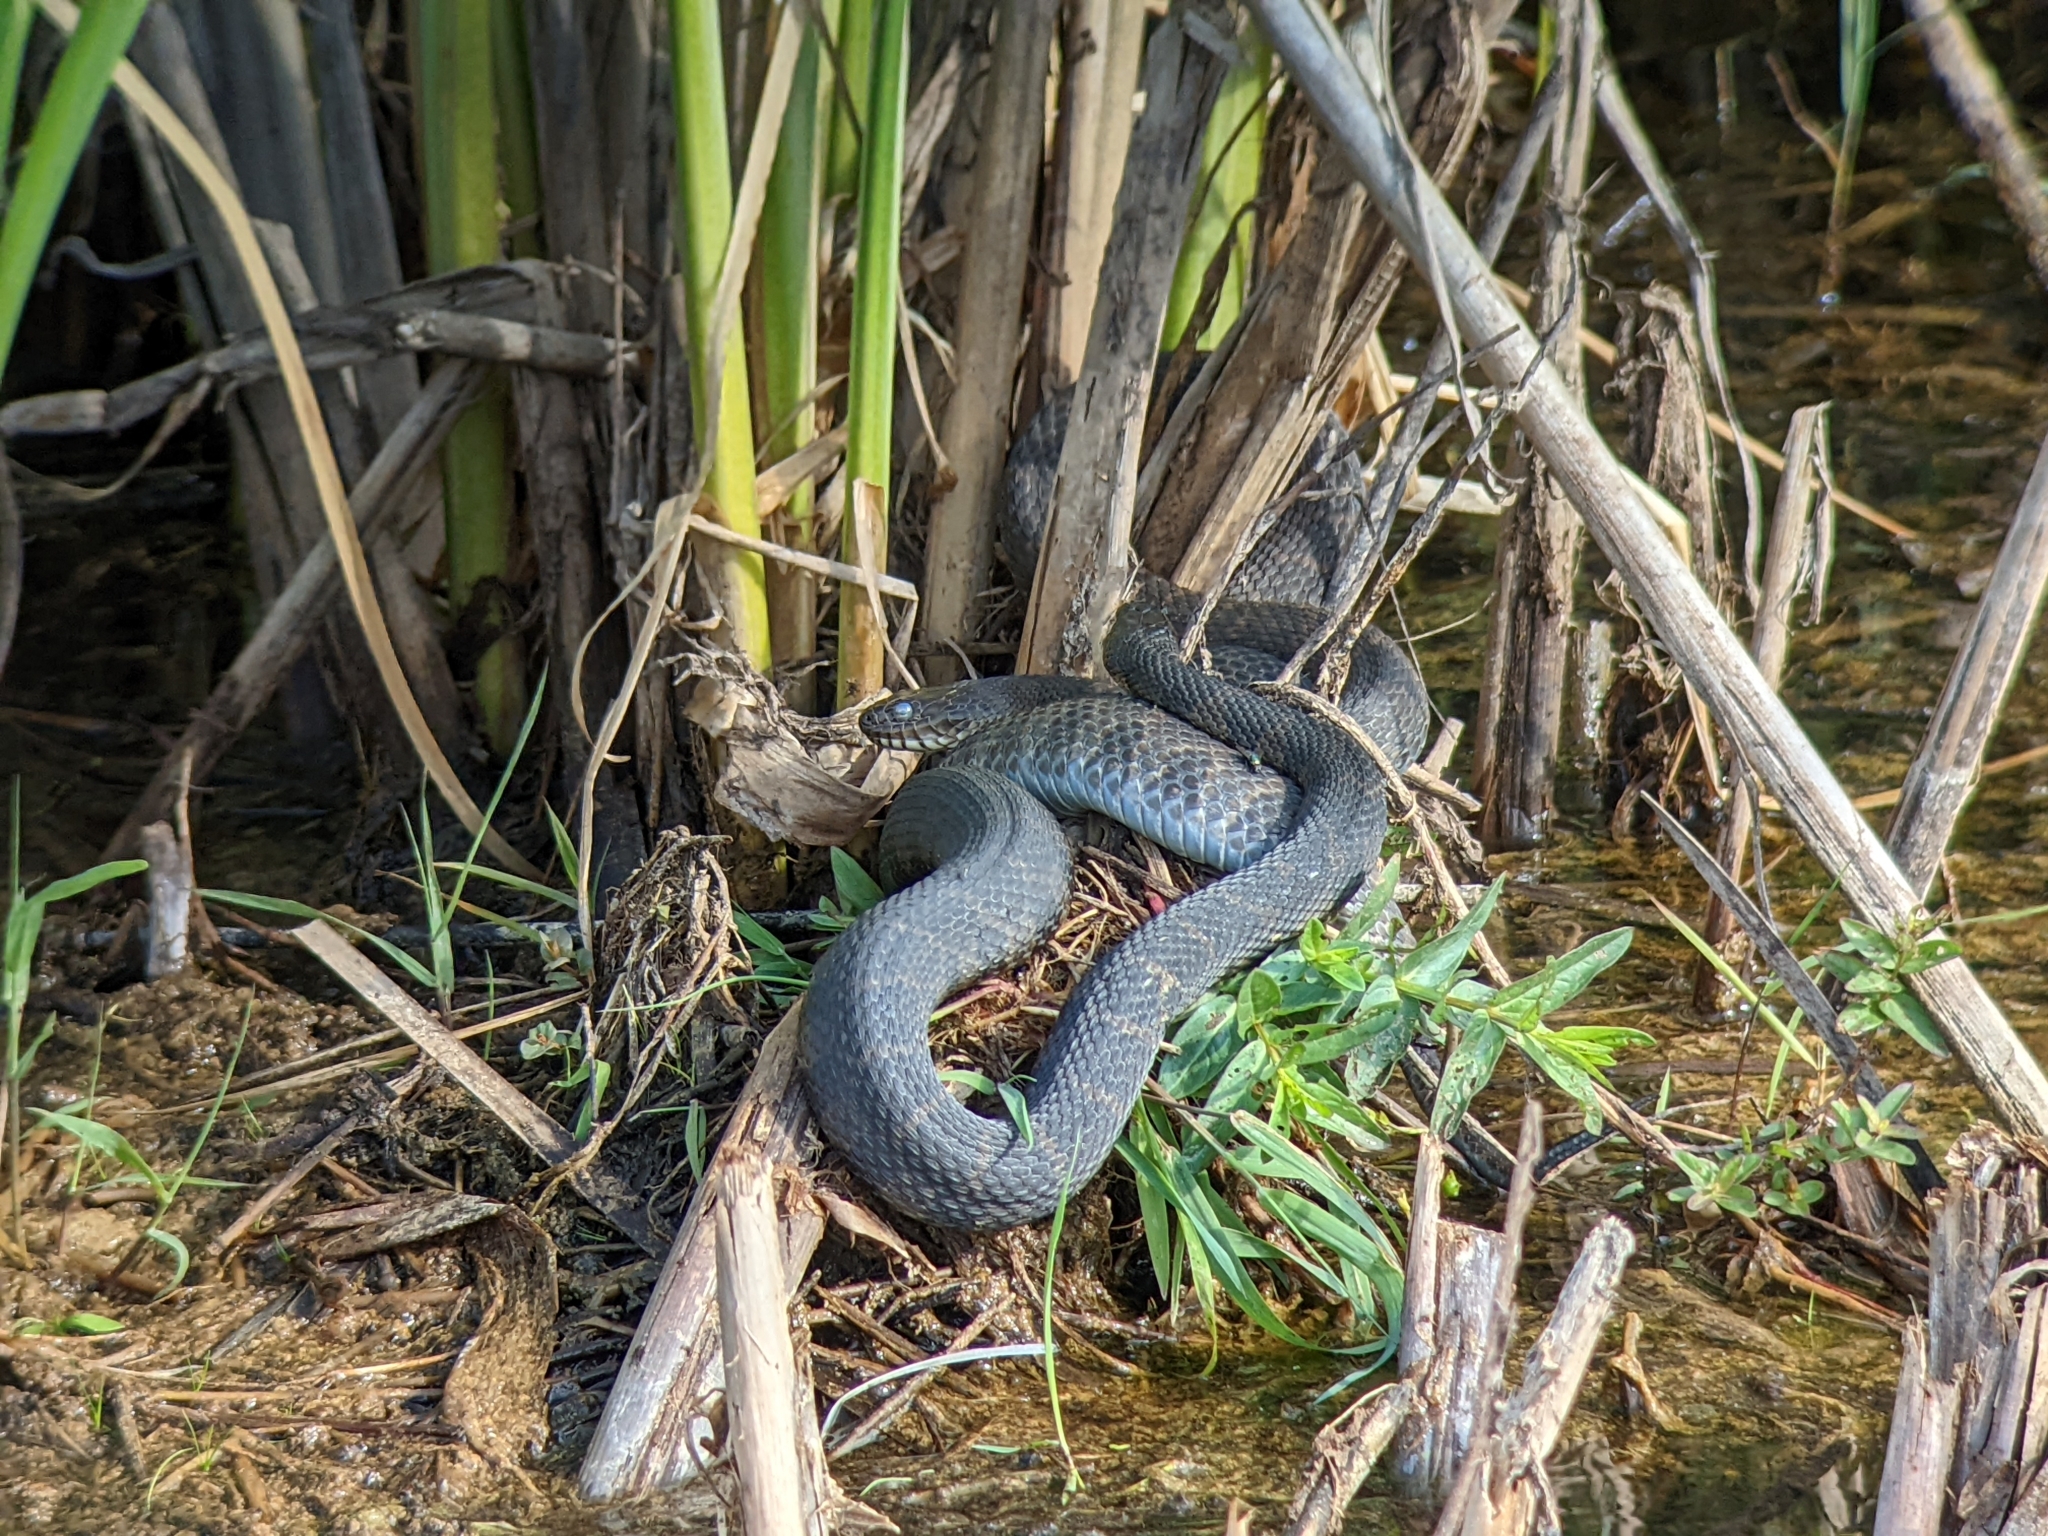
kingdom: Animalia
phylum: Chordata
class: Squamata
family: Colubridae
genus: Nerodia
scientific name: Nerodia sipedon
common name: Northern water snake
